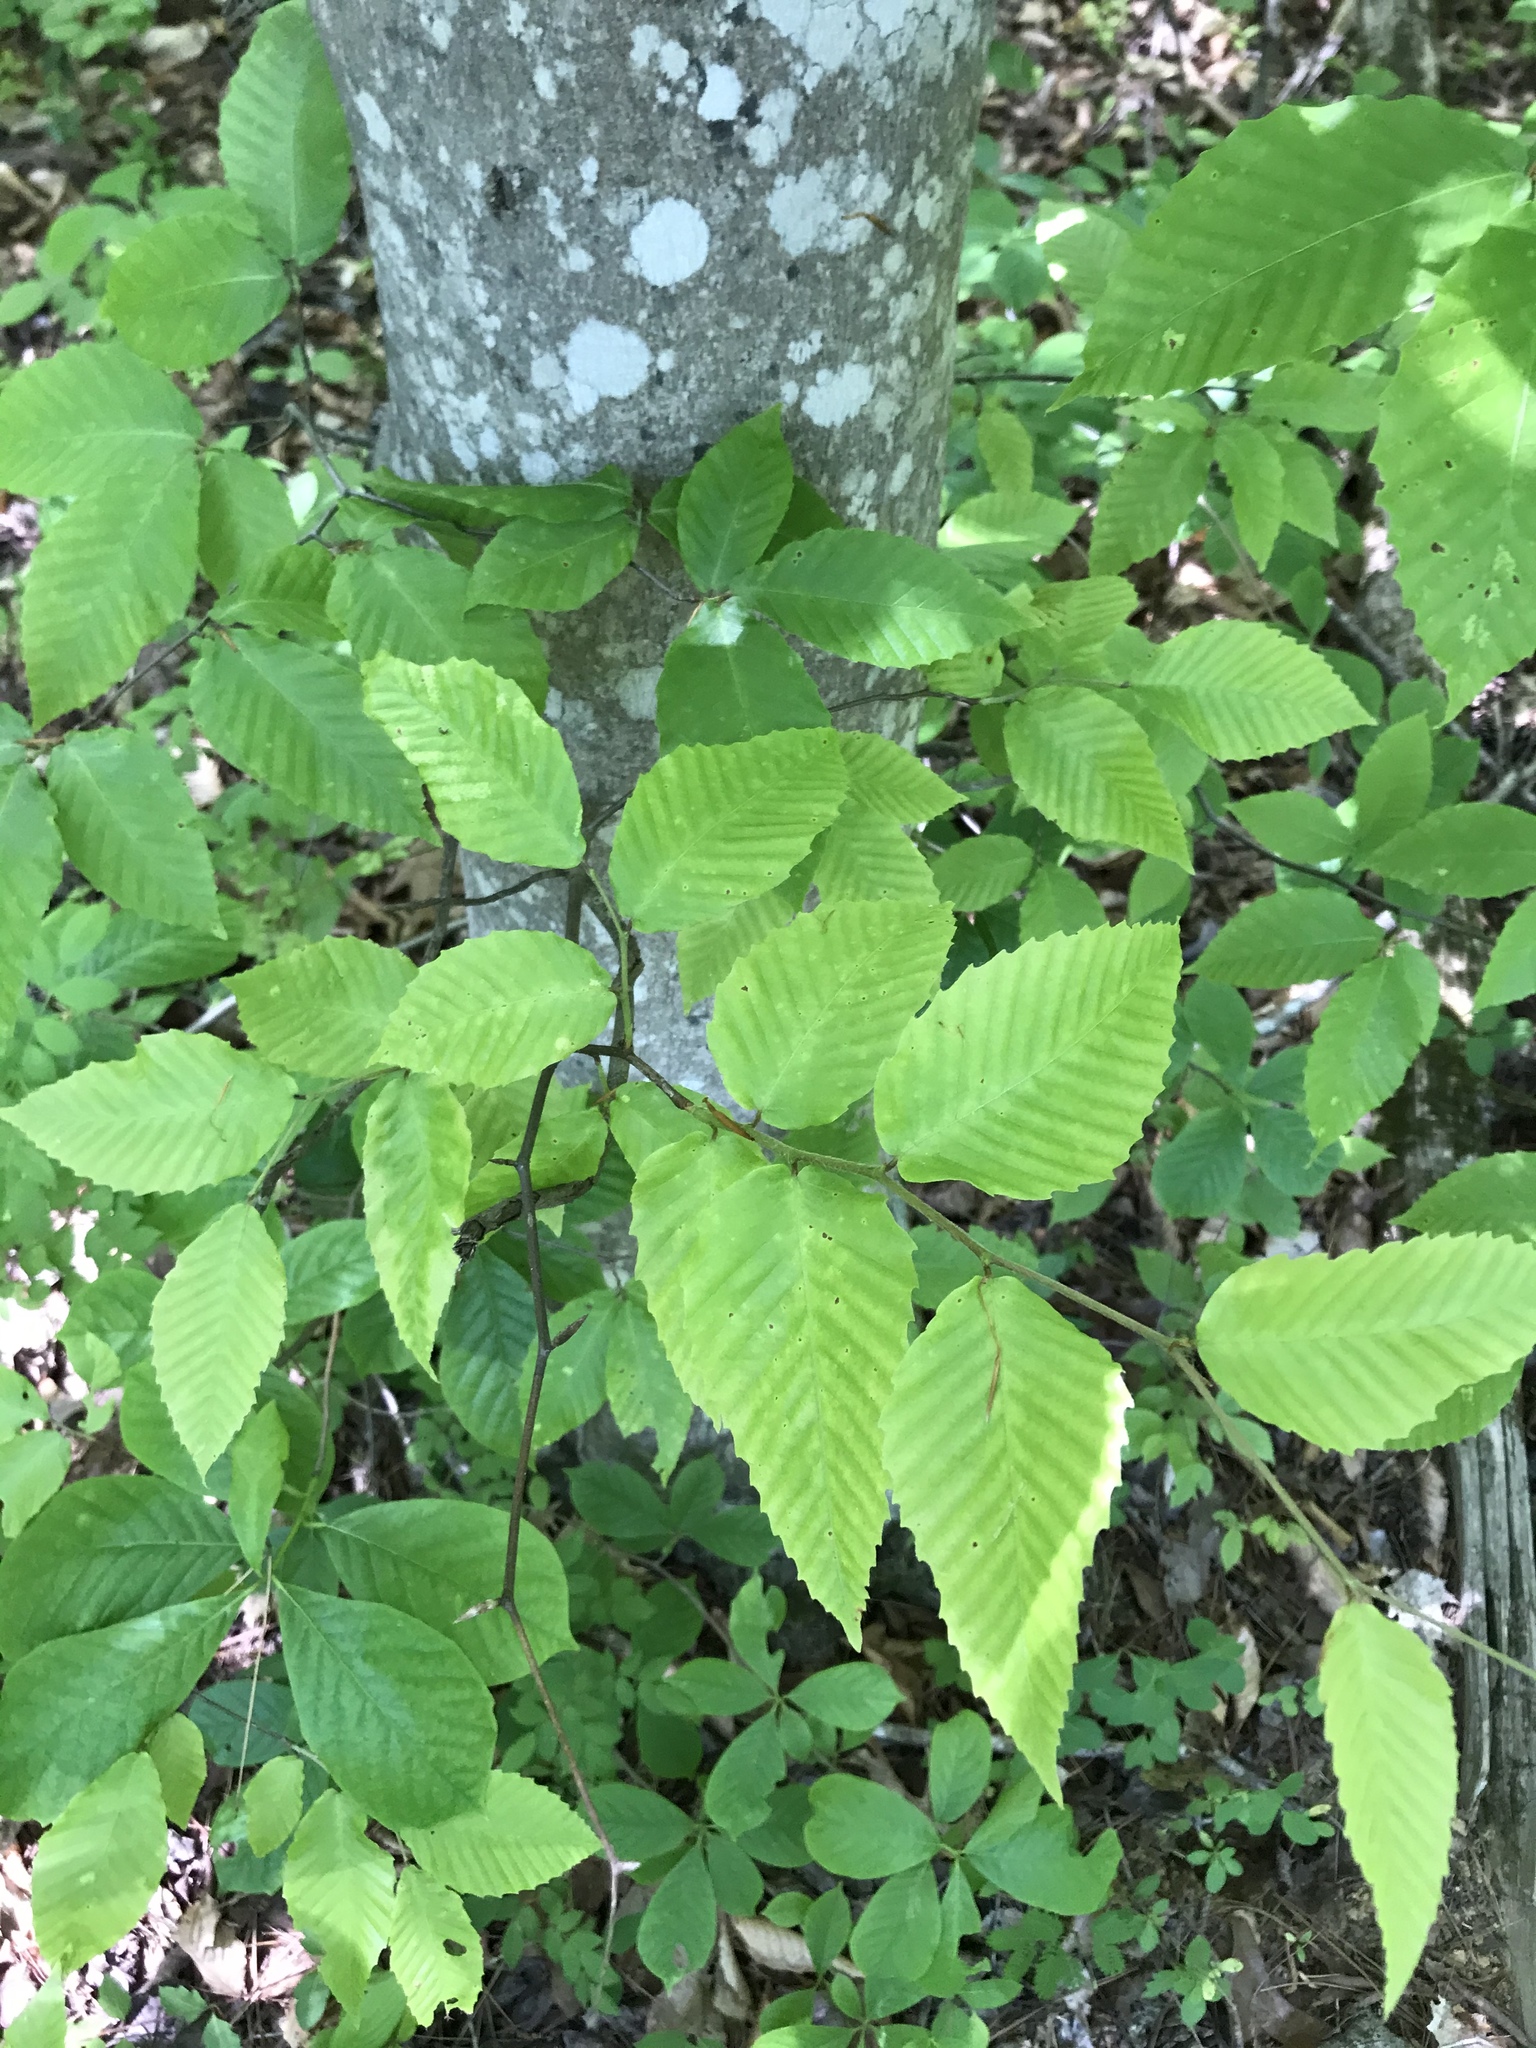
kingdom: Plantae
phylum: Tracheophyta
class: Magnoliopsida
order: Fagales
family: Fagaceae
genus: Fagus
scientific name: Fagus grandifolia
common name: American beech
